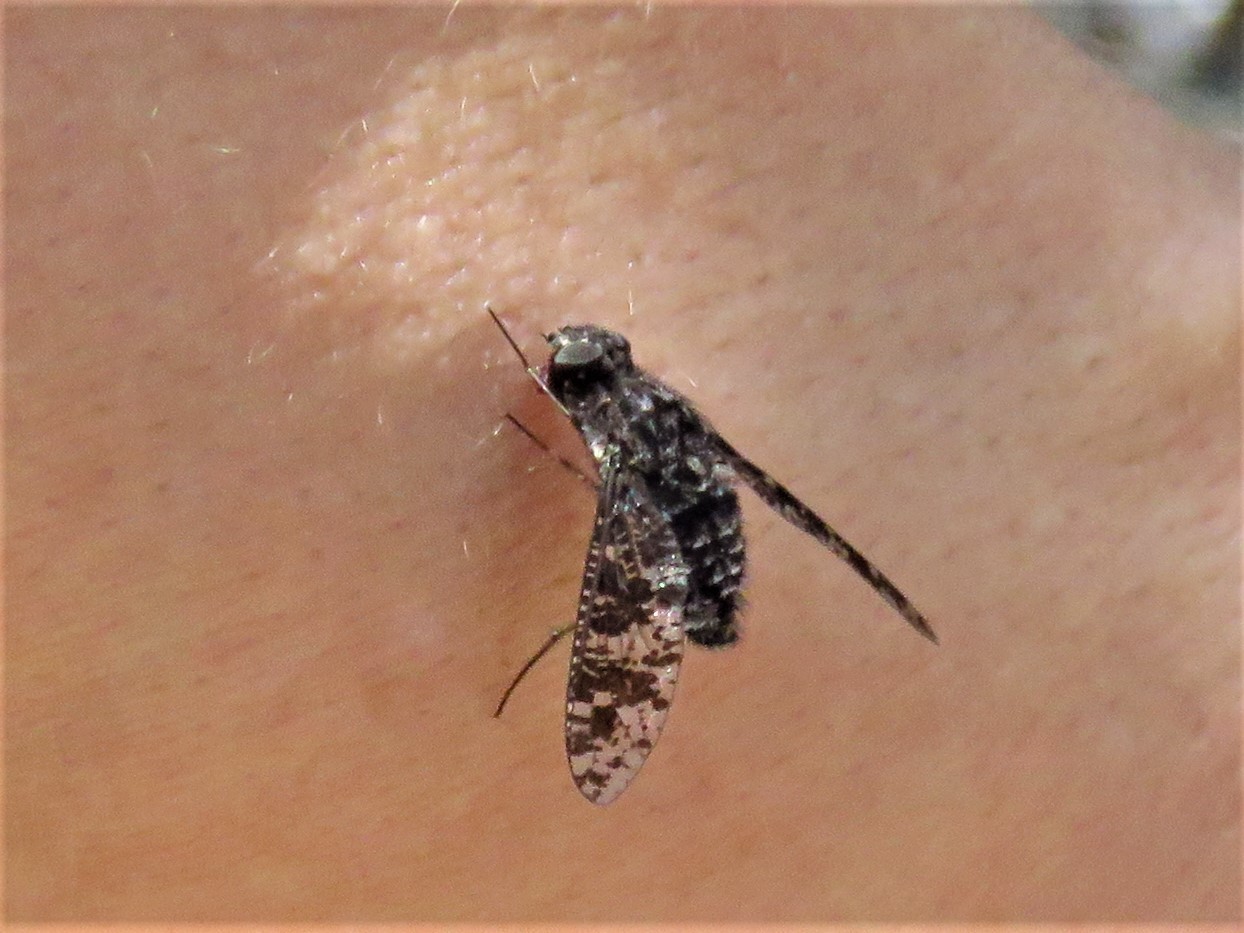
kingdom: Animalia
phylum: Arthropoda
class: Insecta
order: Diptera
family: Bombyliidae
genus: Anthrax
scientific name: Anthrax
